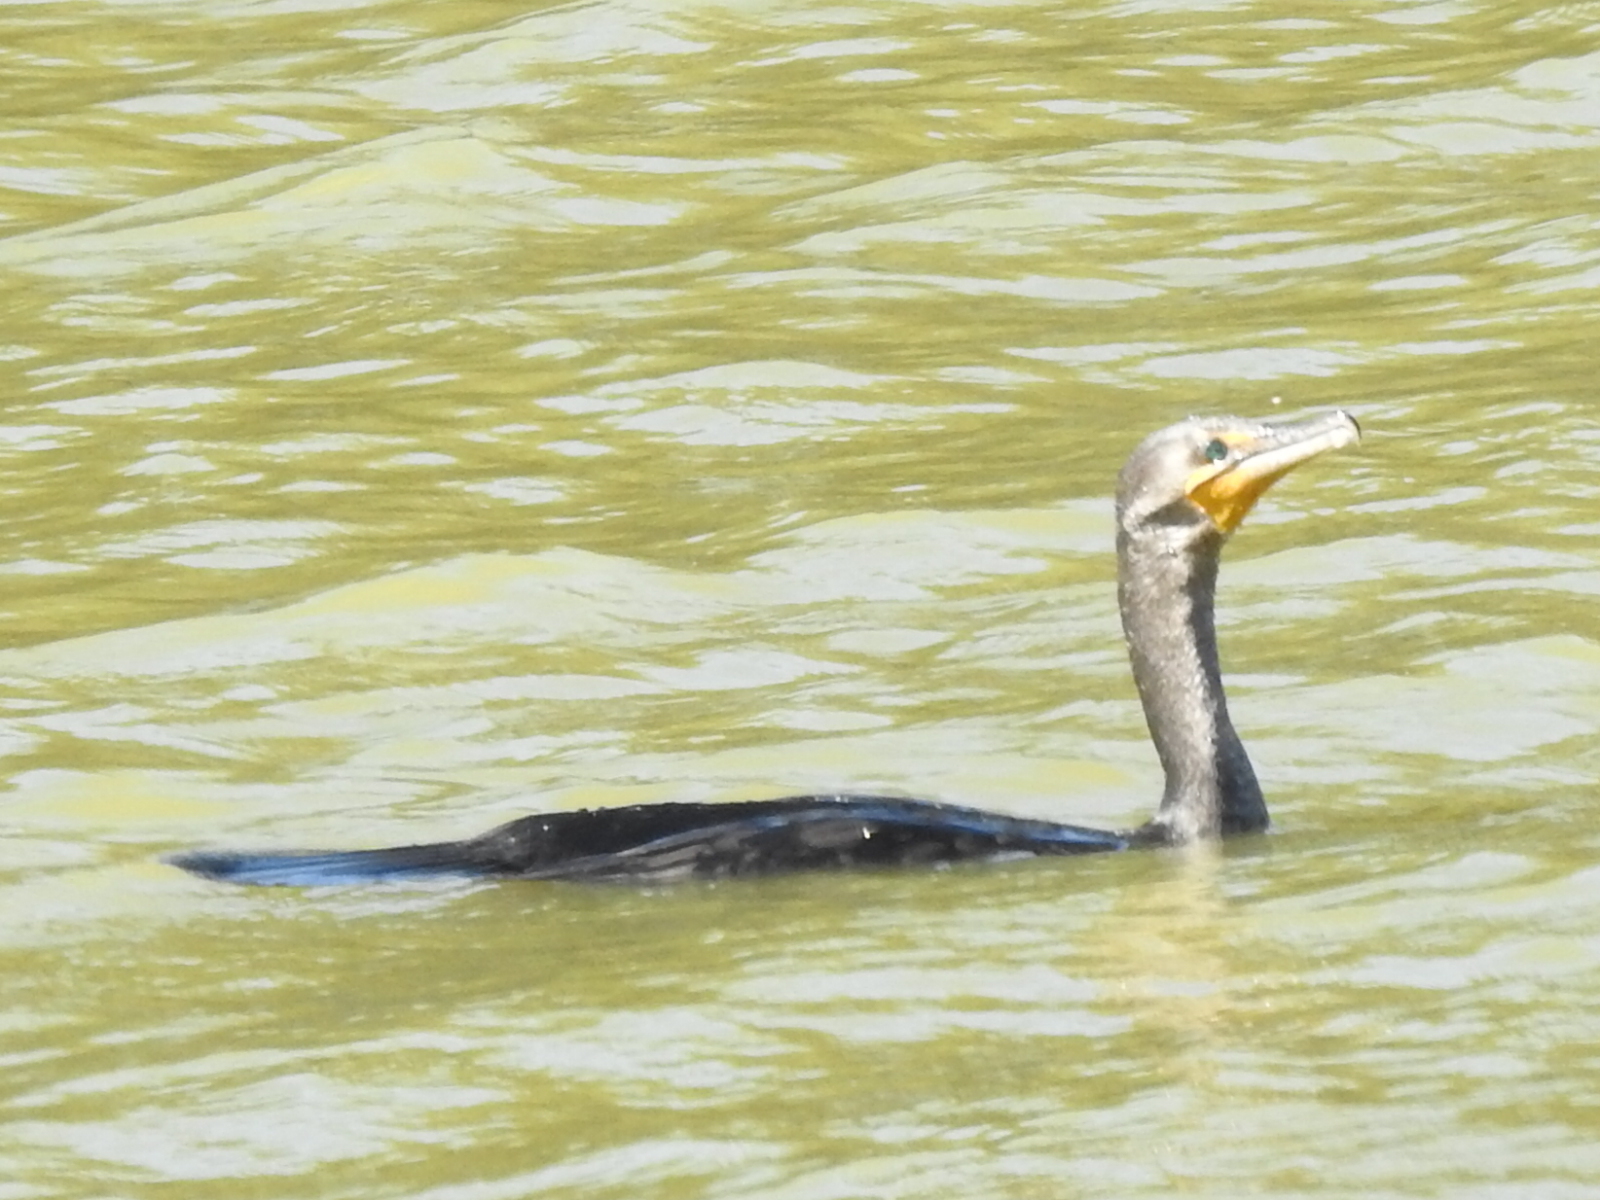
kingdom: Animalia
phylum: Chordata
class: Aves
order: Suliformes
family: Phalacrocoracidae
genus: Phalacrocorax
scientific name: Phalacrocorax auritus
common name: Double-crested cormorant
